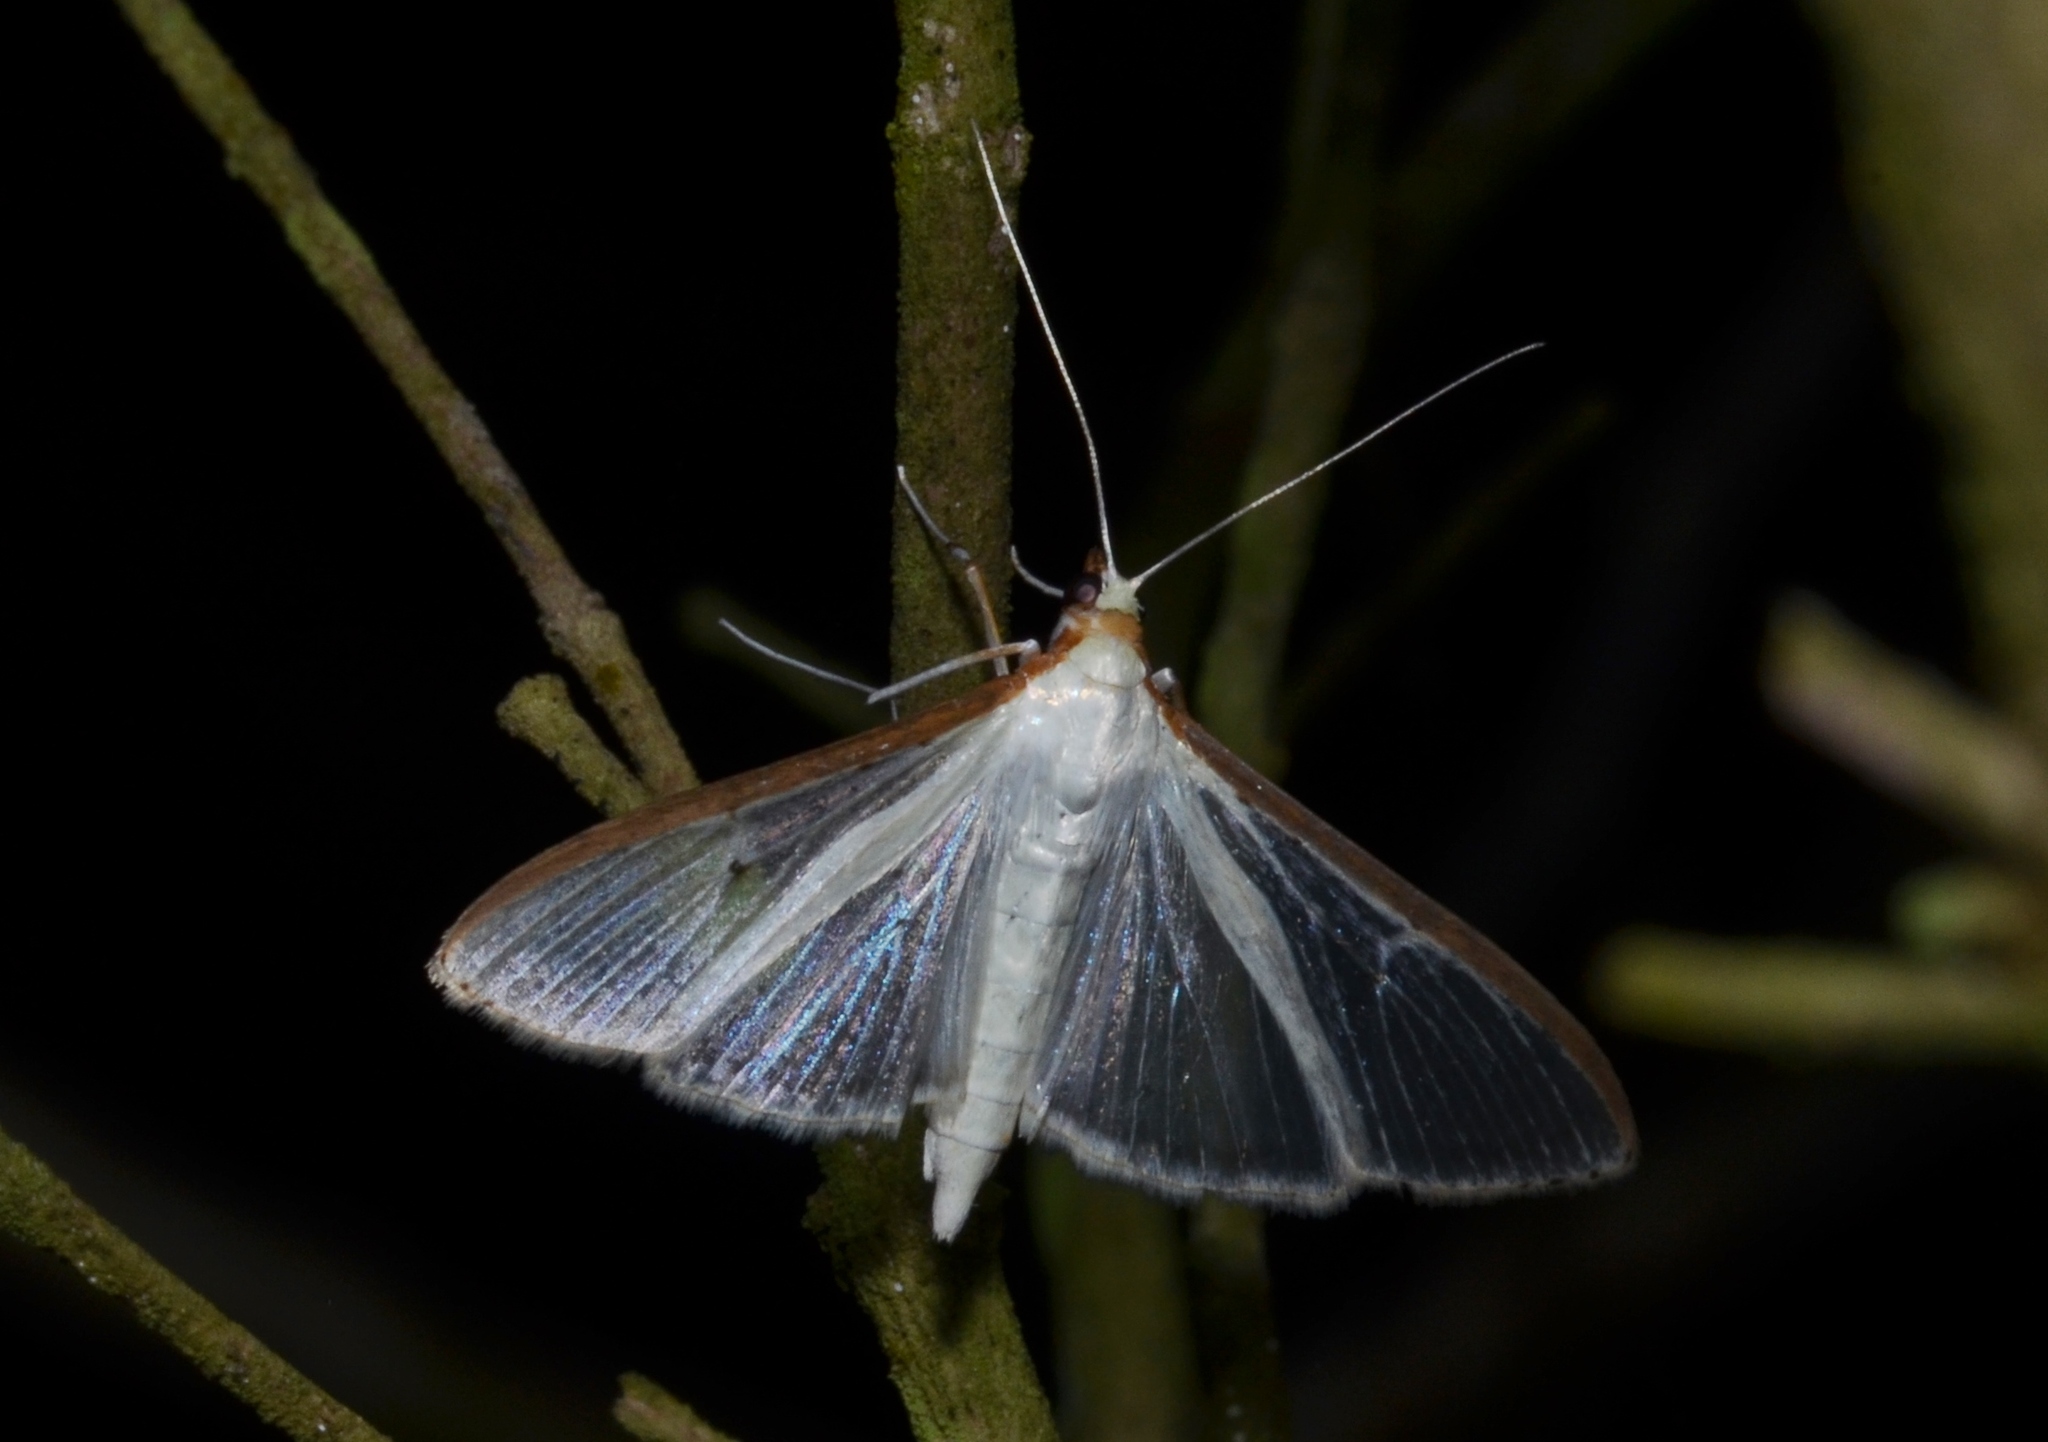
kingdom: Animalia
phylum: Arthropoda
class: Insecta
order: Lepidoptera
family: Crambidae
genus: Palpita
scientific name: Palpita quadristigmalis
